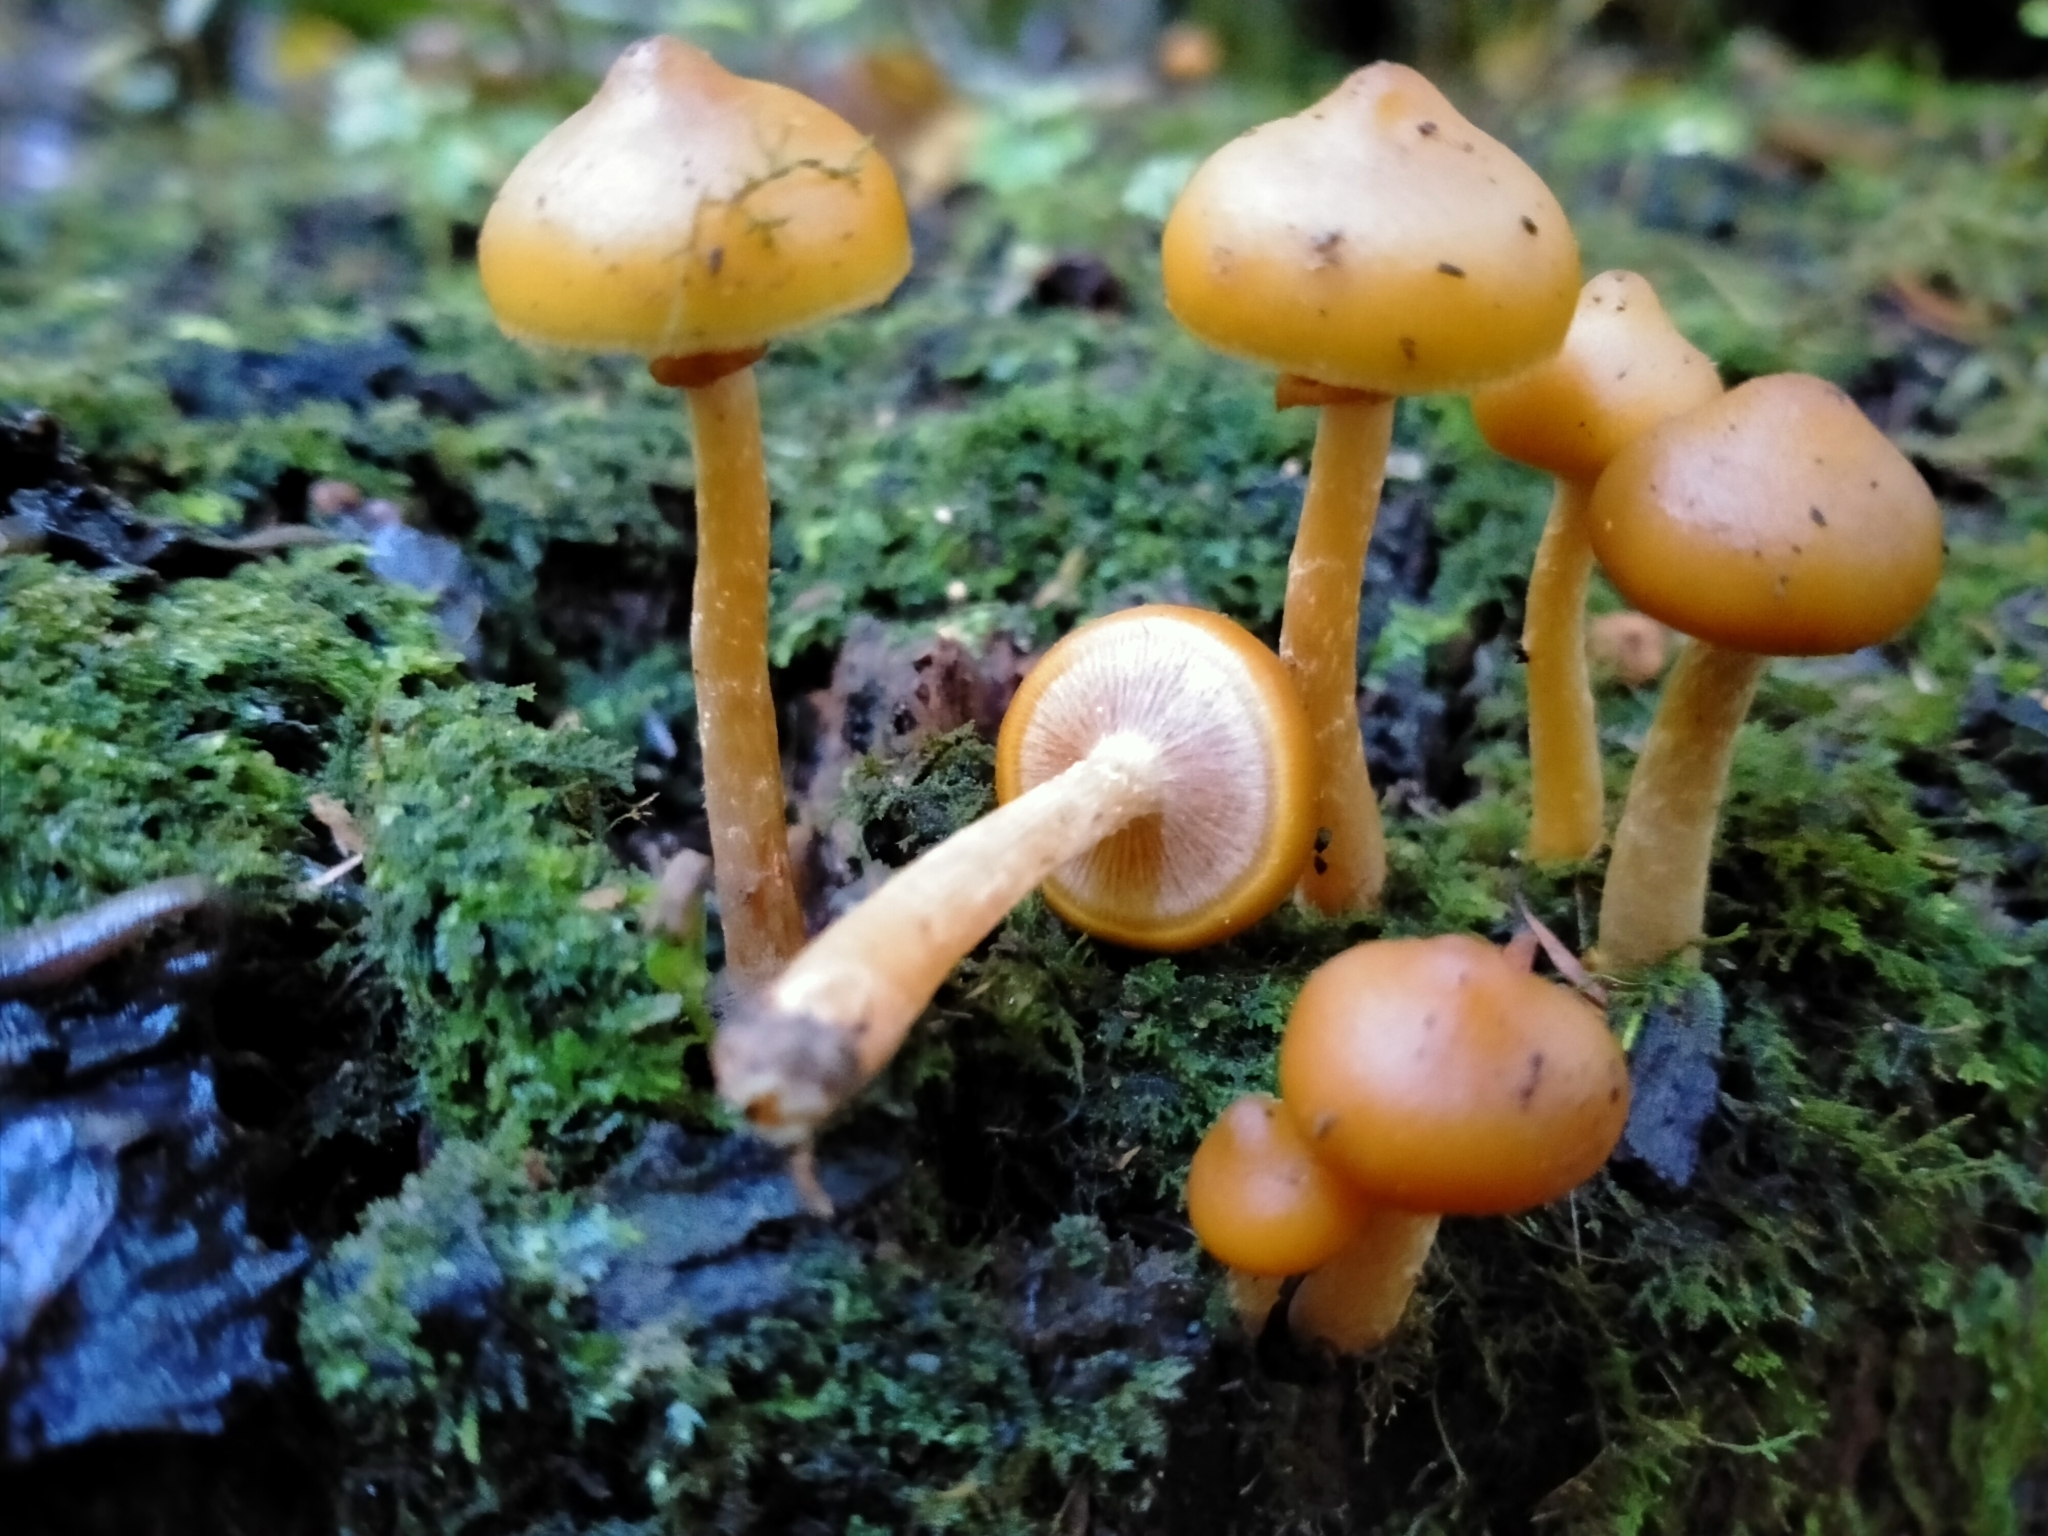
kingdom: Fungi
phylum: Basidiomycota
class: Agaricomycetes
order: Agaricales
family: Hymenogastraceae
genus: Galerina
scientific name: Galerina patagonica
